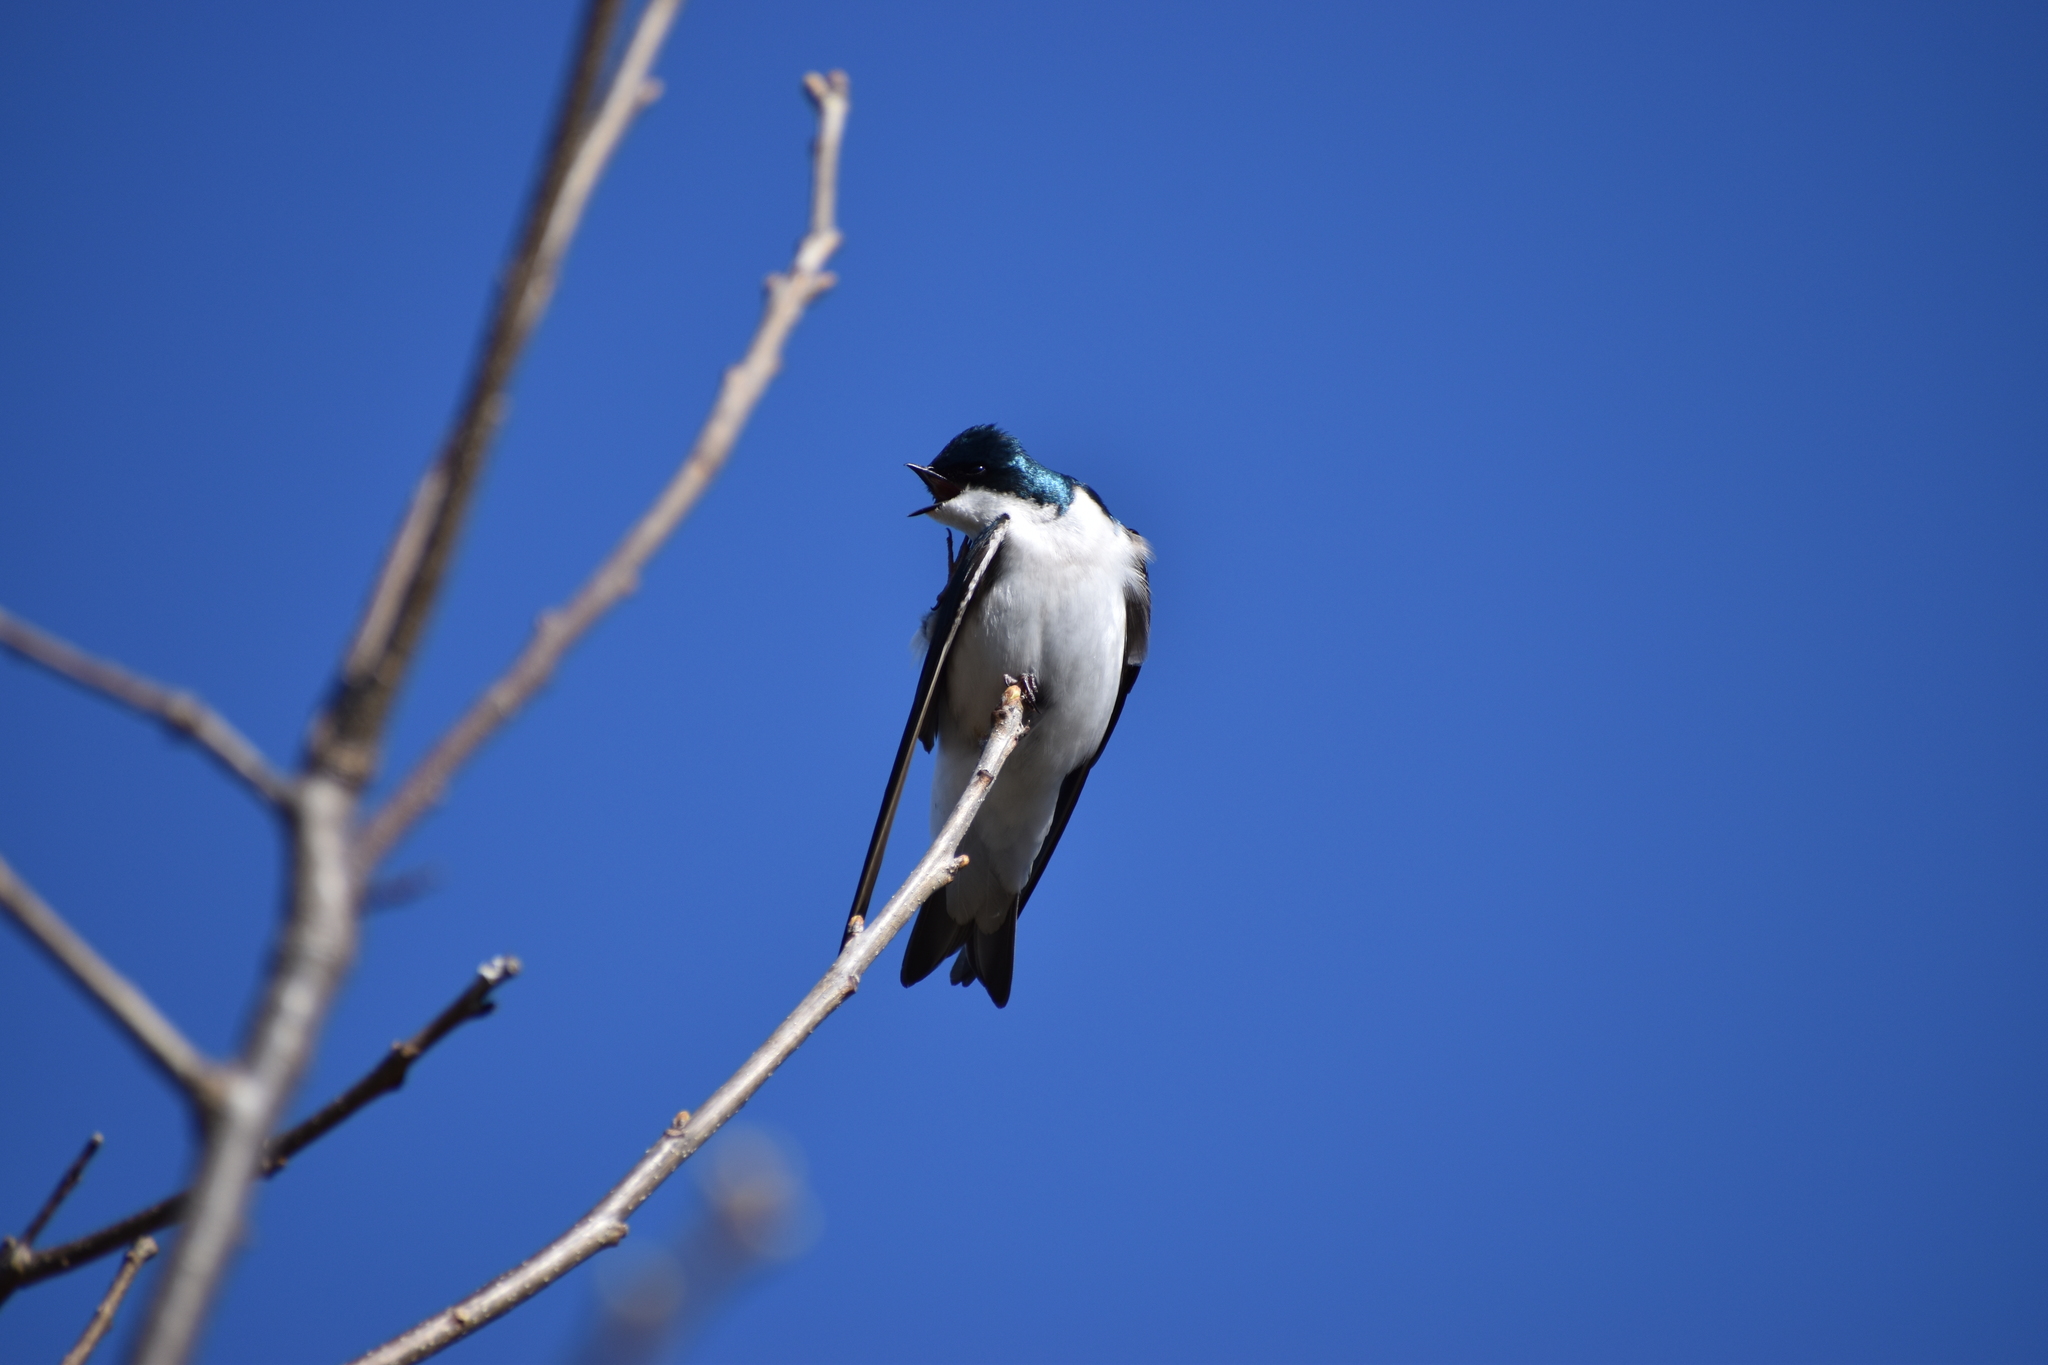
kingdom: Animalia
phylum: Chordata
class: Aves
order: Passeriformes
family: Hirundinidae
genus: Tachycineta
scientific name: Tachycineta bicolor
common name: Tree swallow
